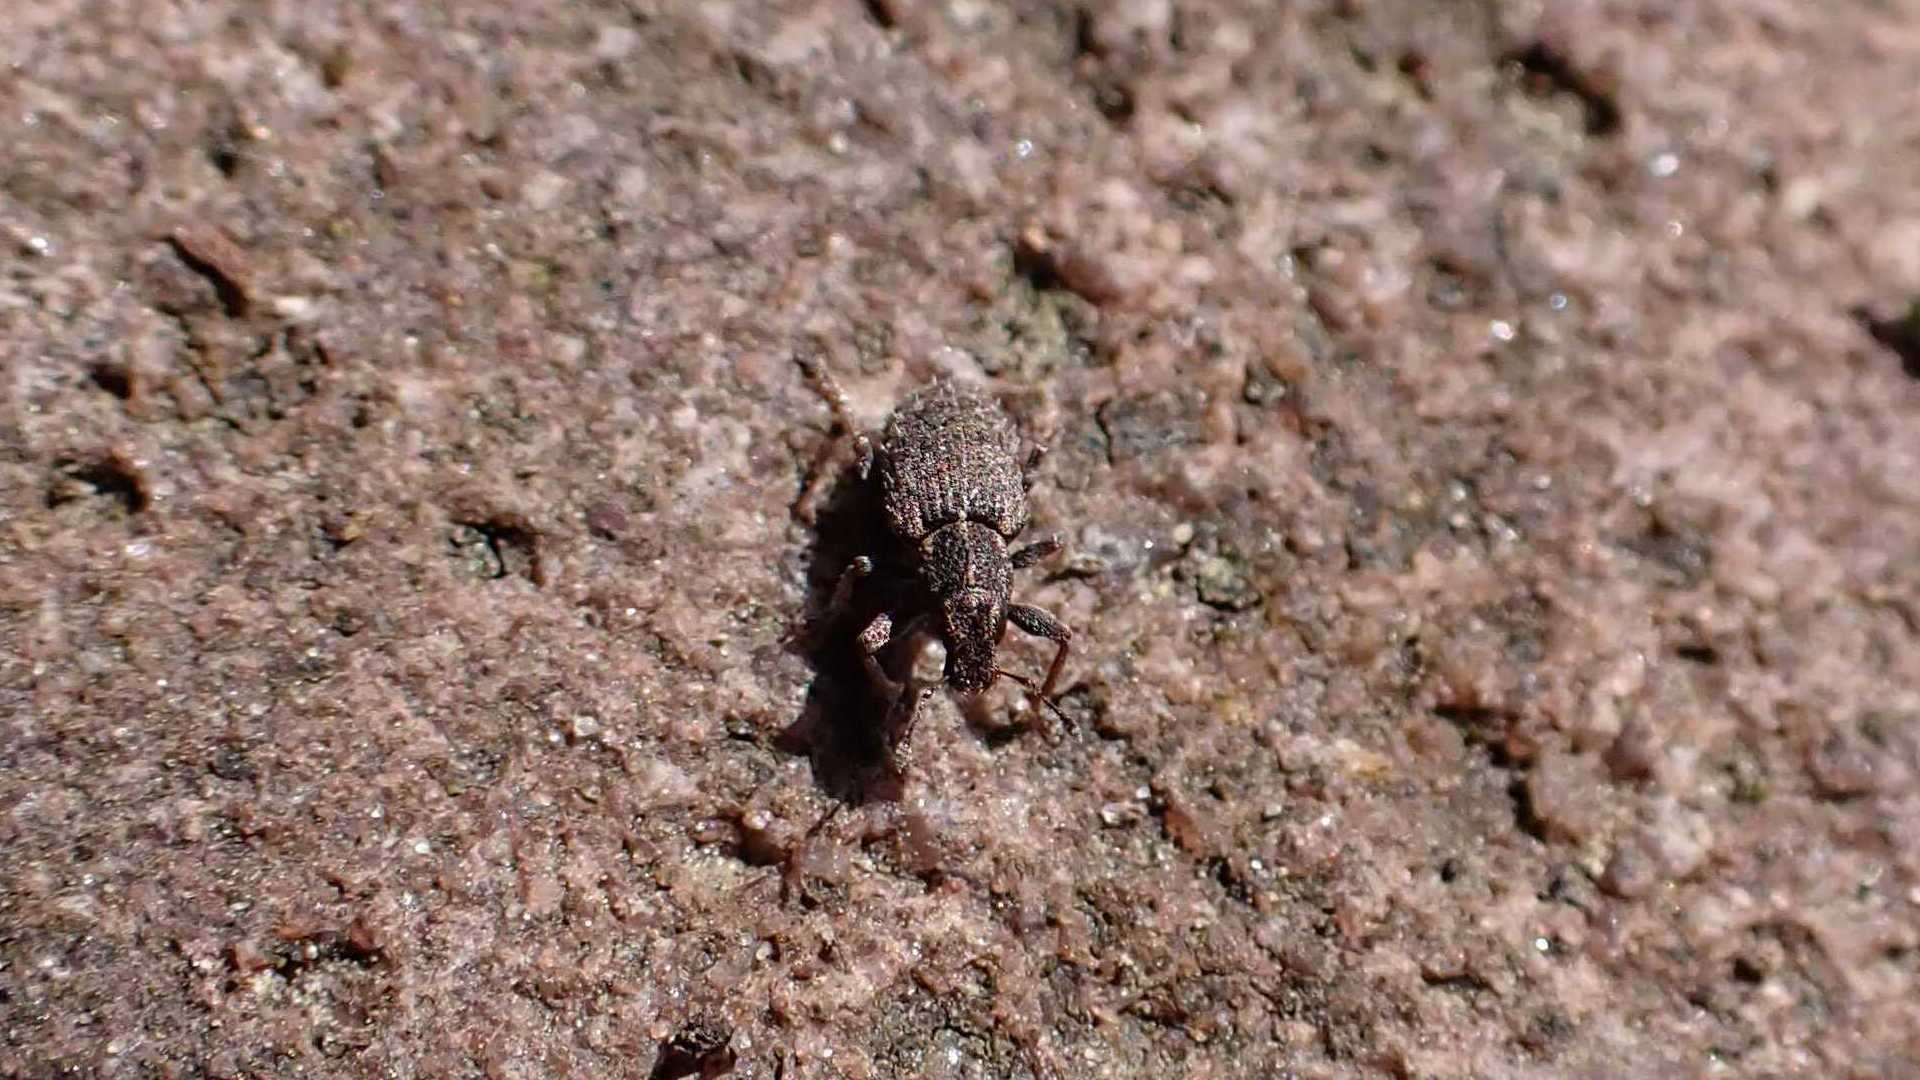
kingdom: Animalia
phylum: Arthropoda
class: Insecta
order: Coleoptera
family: Curculionidae
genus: Sitona
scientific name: Sitona hispidulus
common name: Clover weevil
